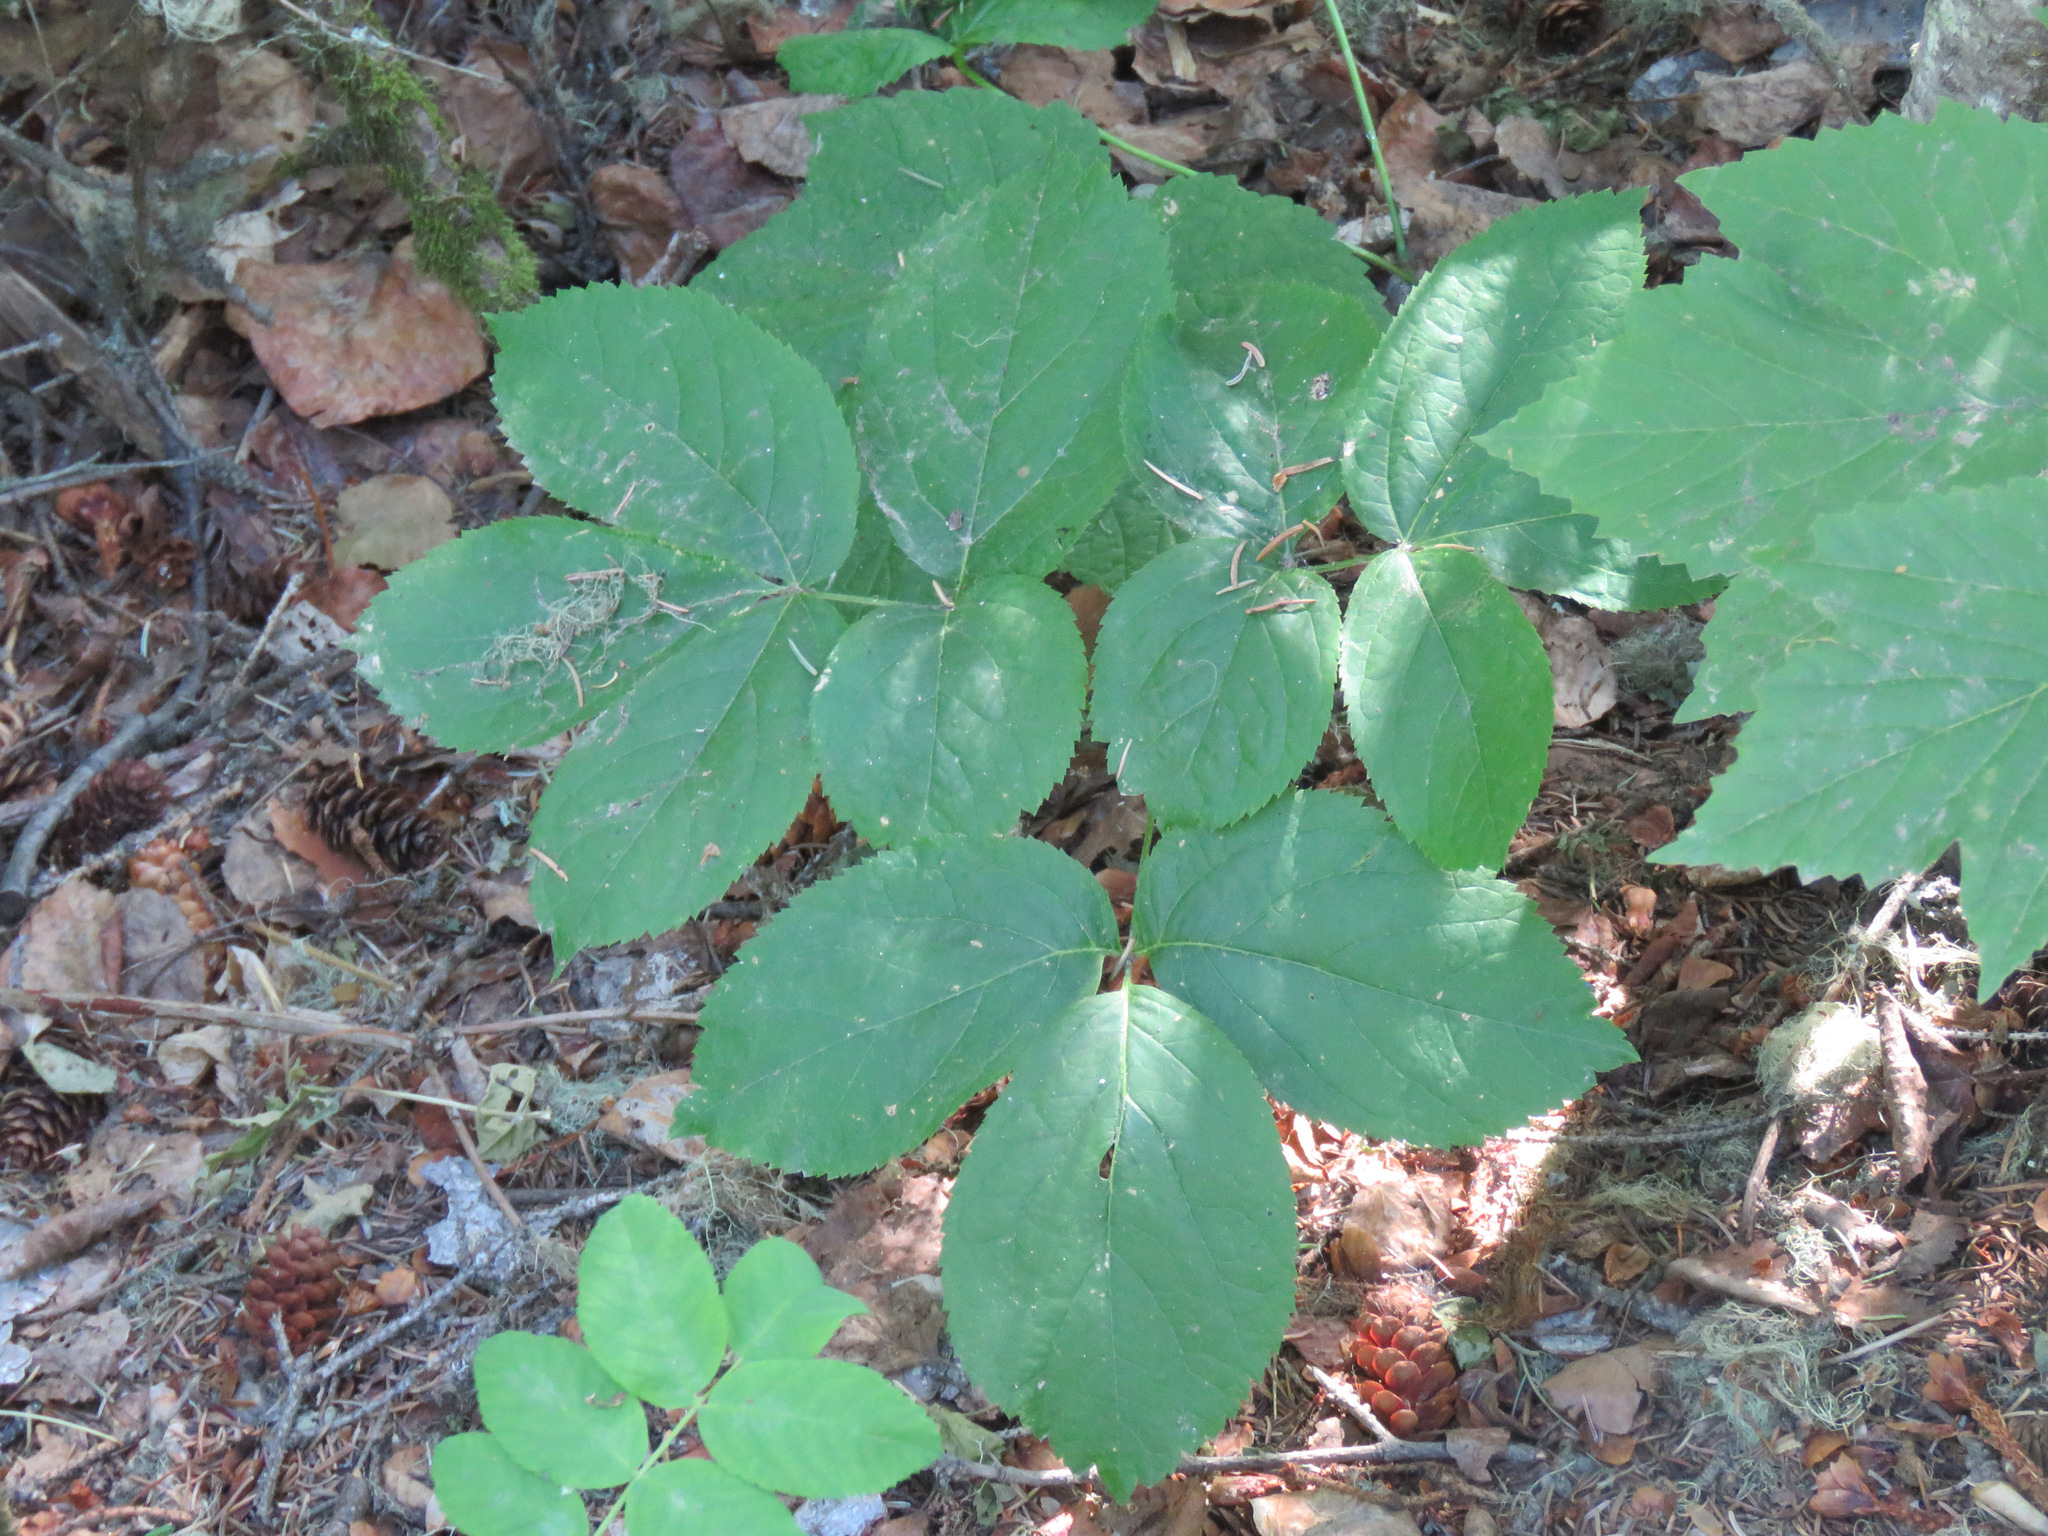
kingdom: Plantae
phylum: Tracheophyta
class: Magnoliopsida
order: Apiales
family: Araliaceae
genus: Aralia
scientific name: Aralia nudicaulis
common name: Wild sarsaparilla
